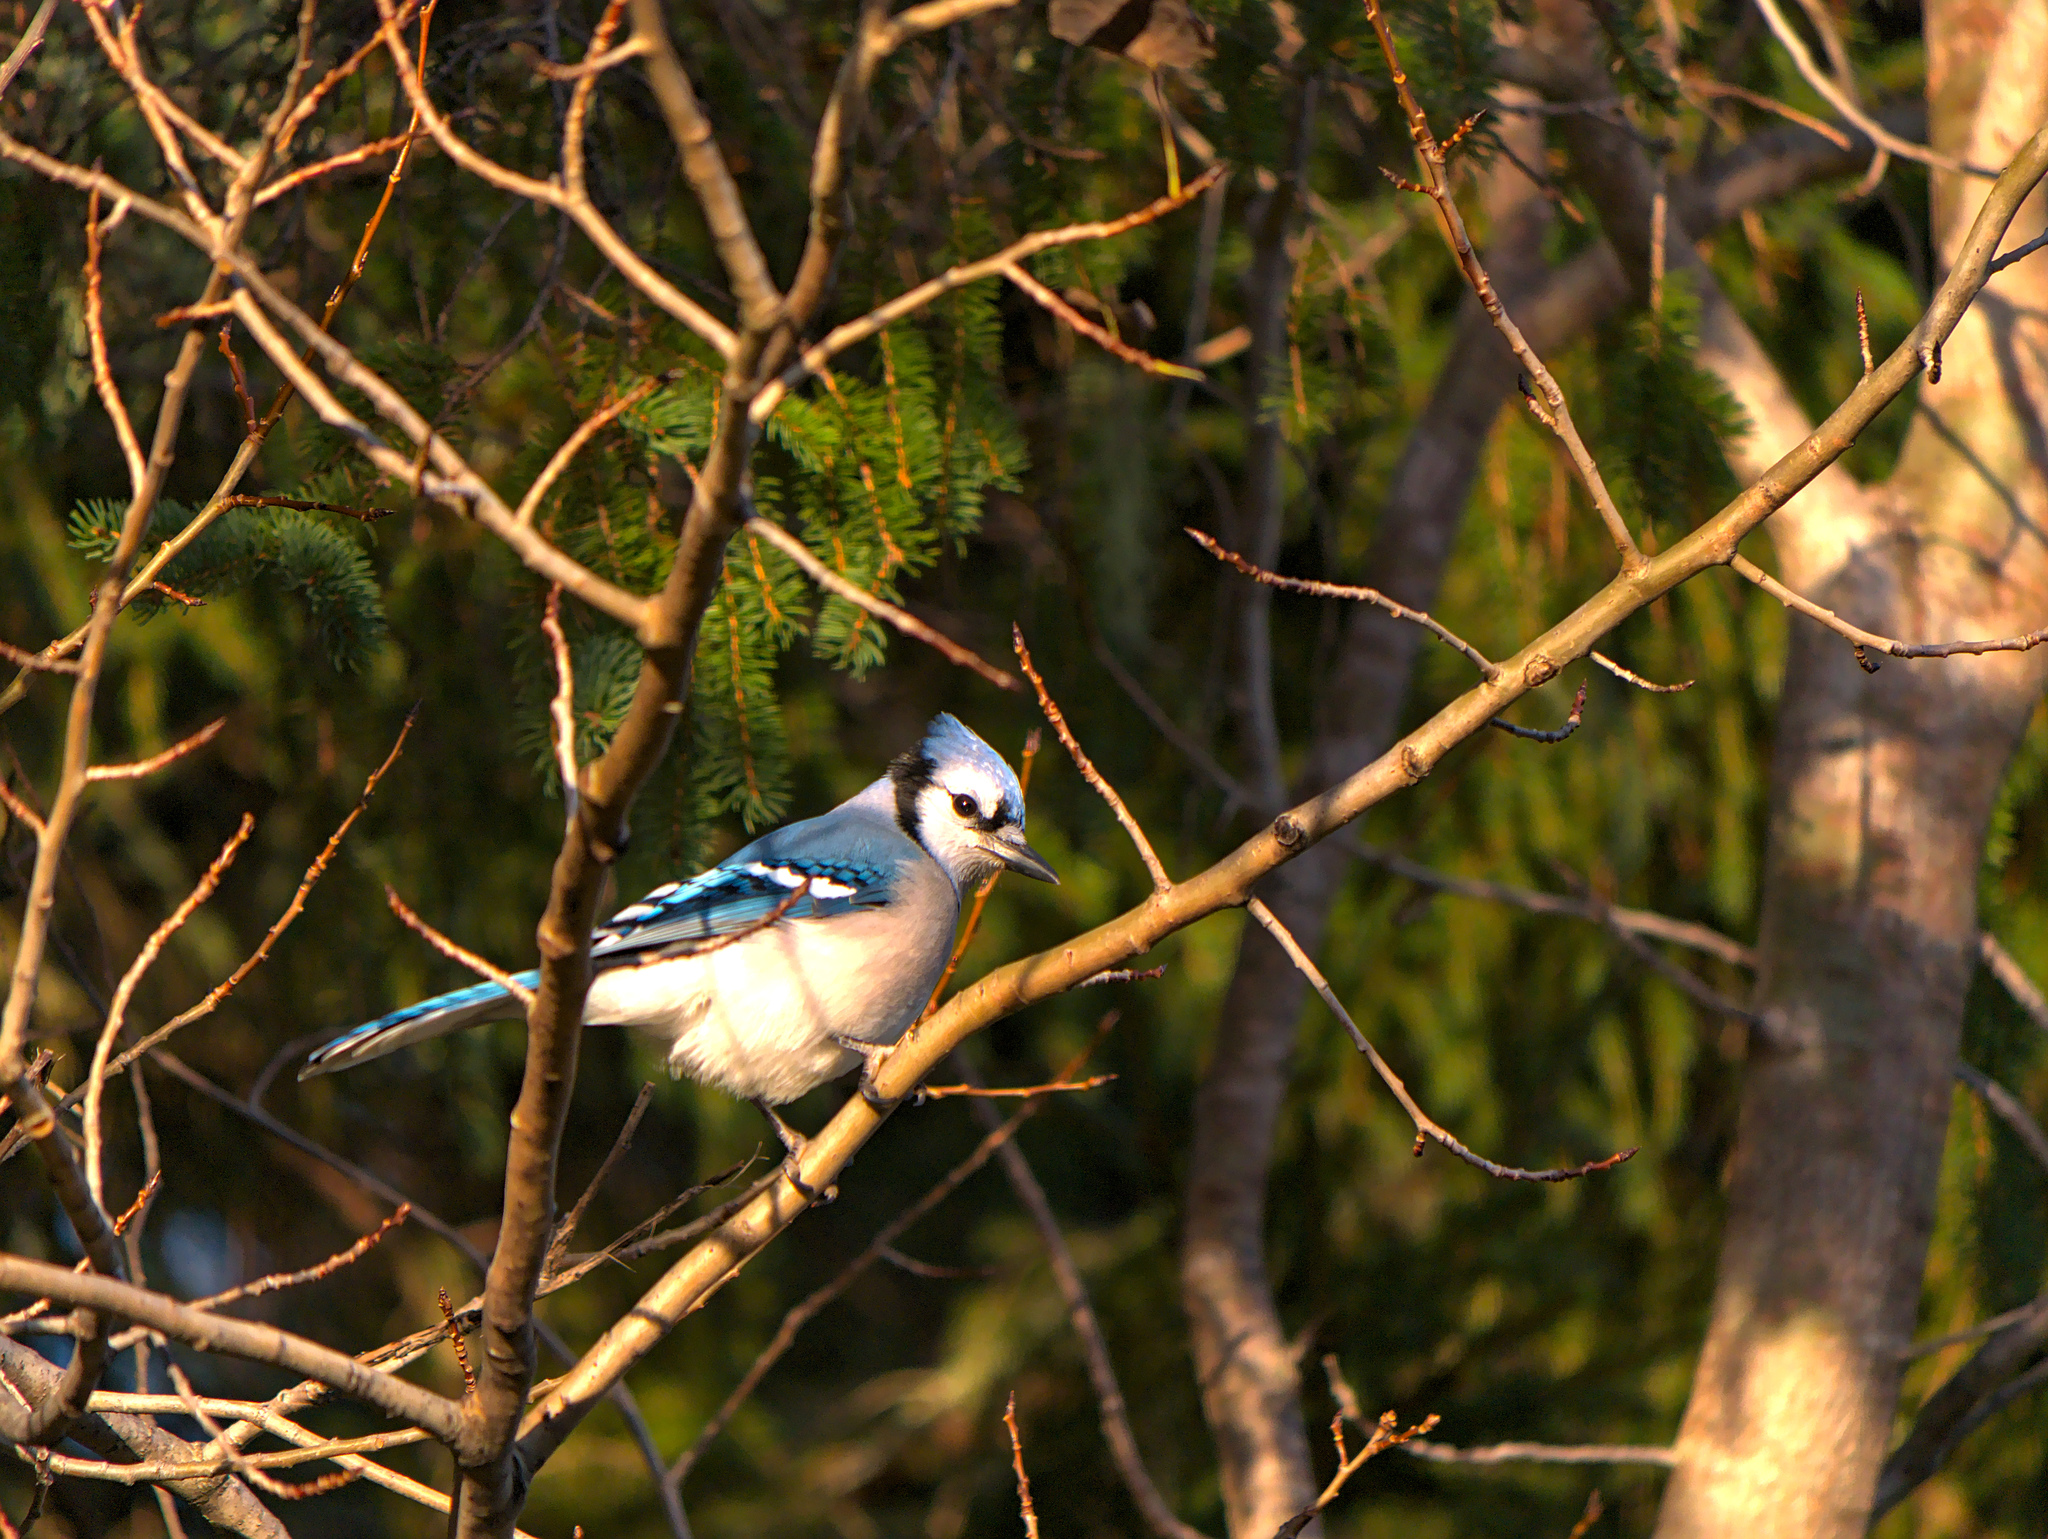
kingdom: Animalia
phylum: Chordata
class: Aves
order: Passeriformes
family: Corvidae
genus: Cyanocitta
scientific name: Cyanocitta cristata
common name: Blue jay
